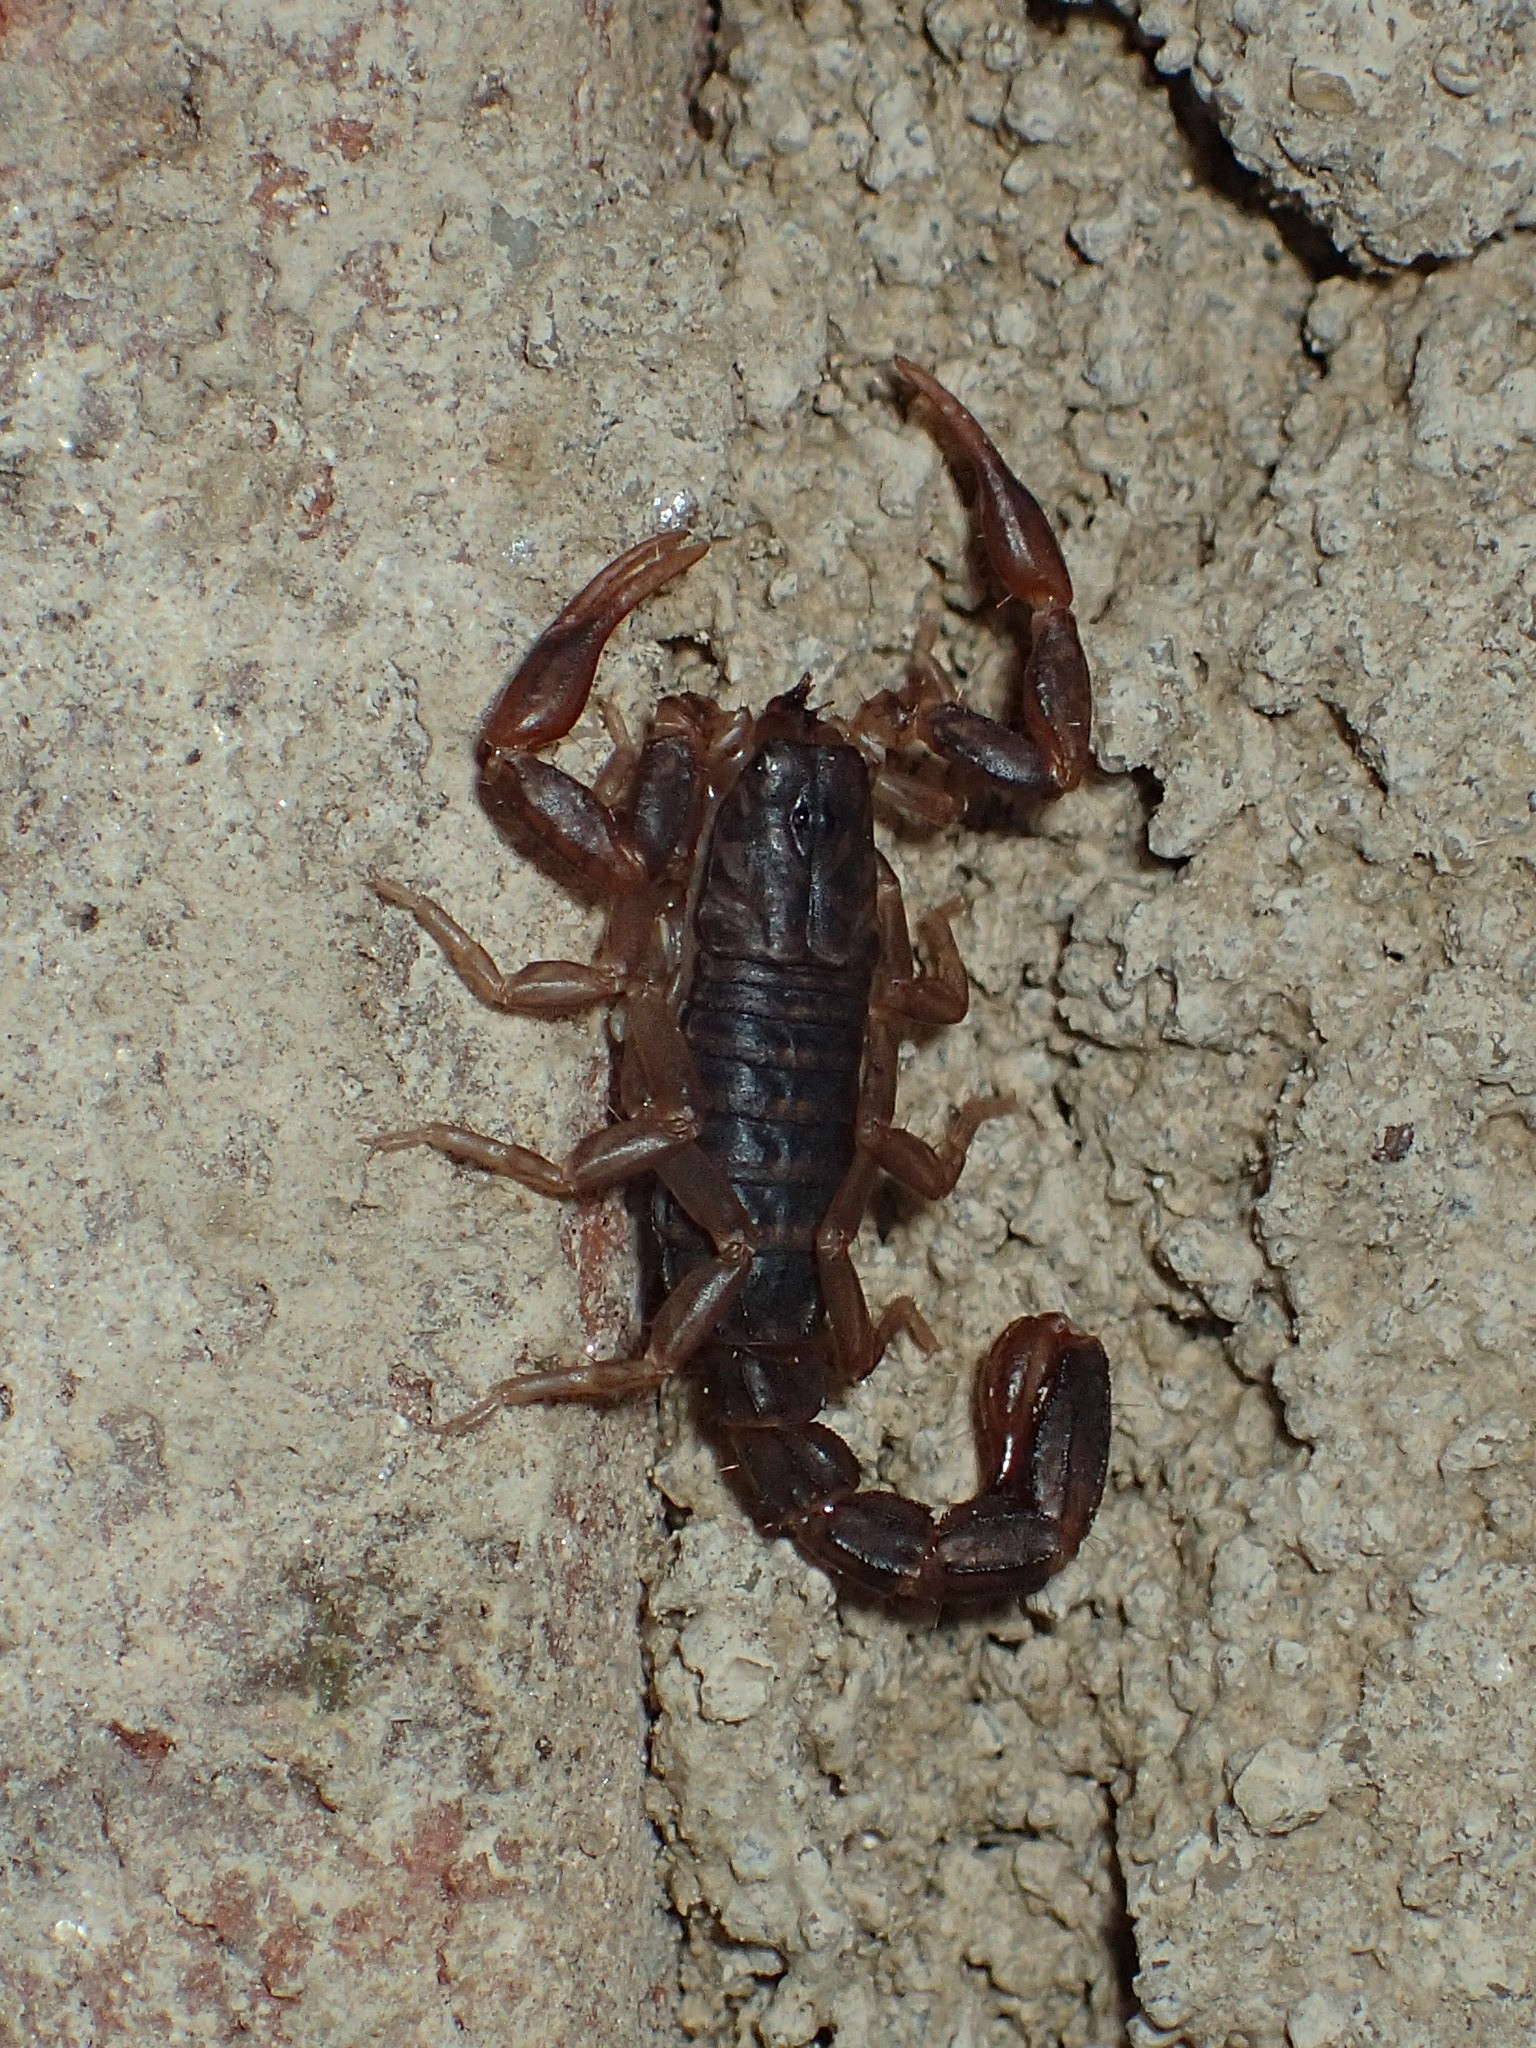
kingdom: Animalia
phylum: Arthropoda
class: Arachnida
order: Scorpiones
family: Vaejovidae
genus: Vaejovis
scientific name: Vaejovis carolinianus
